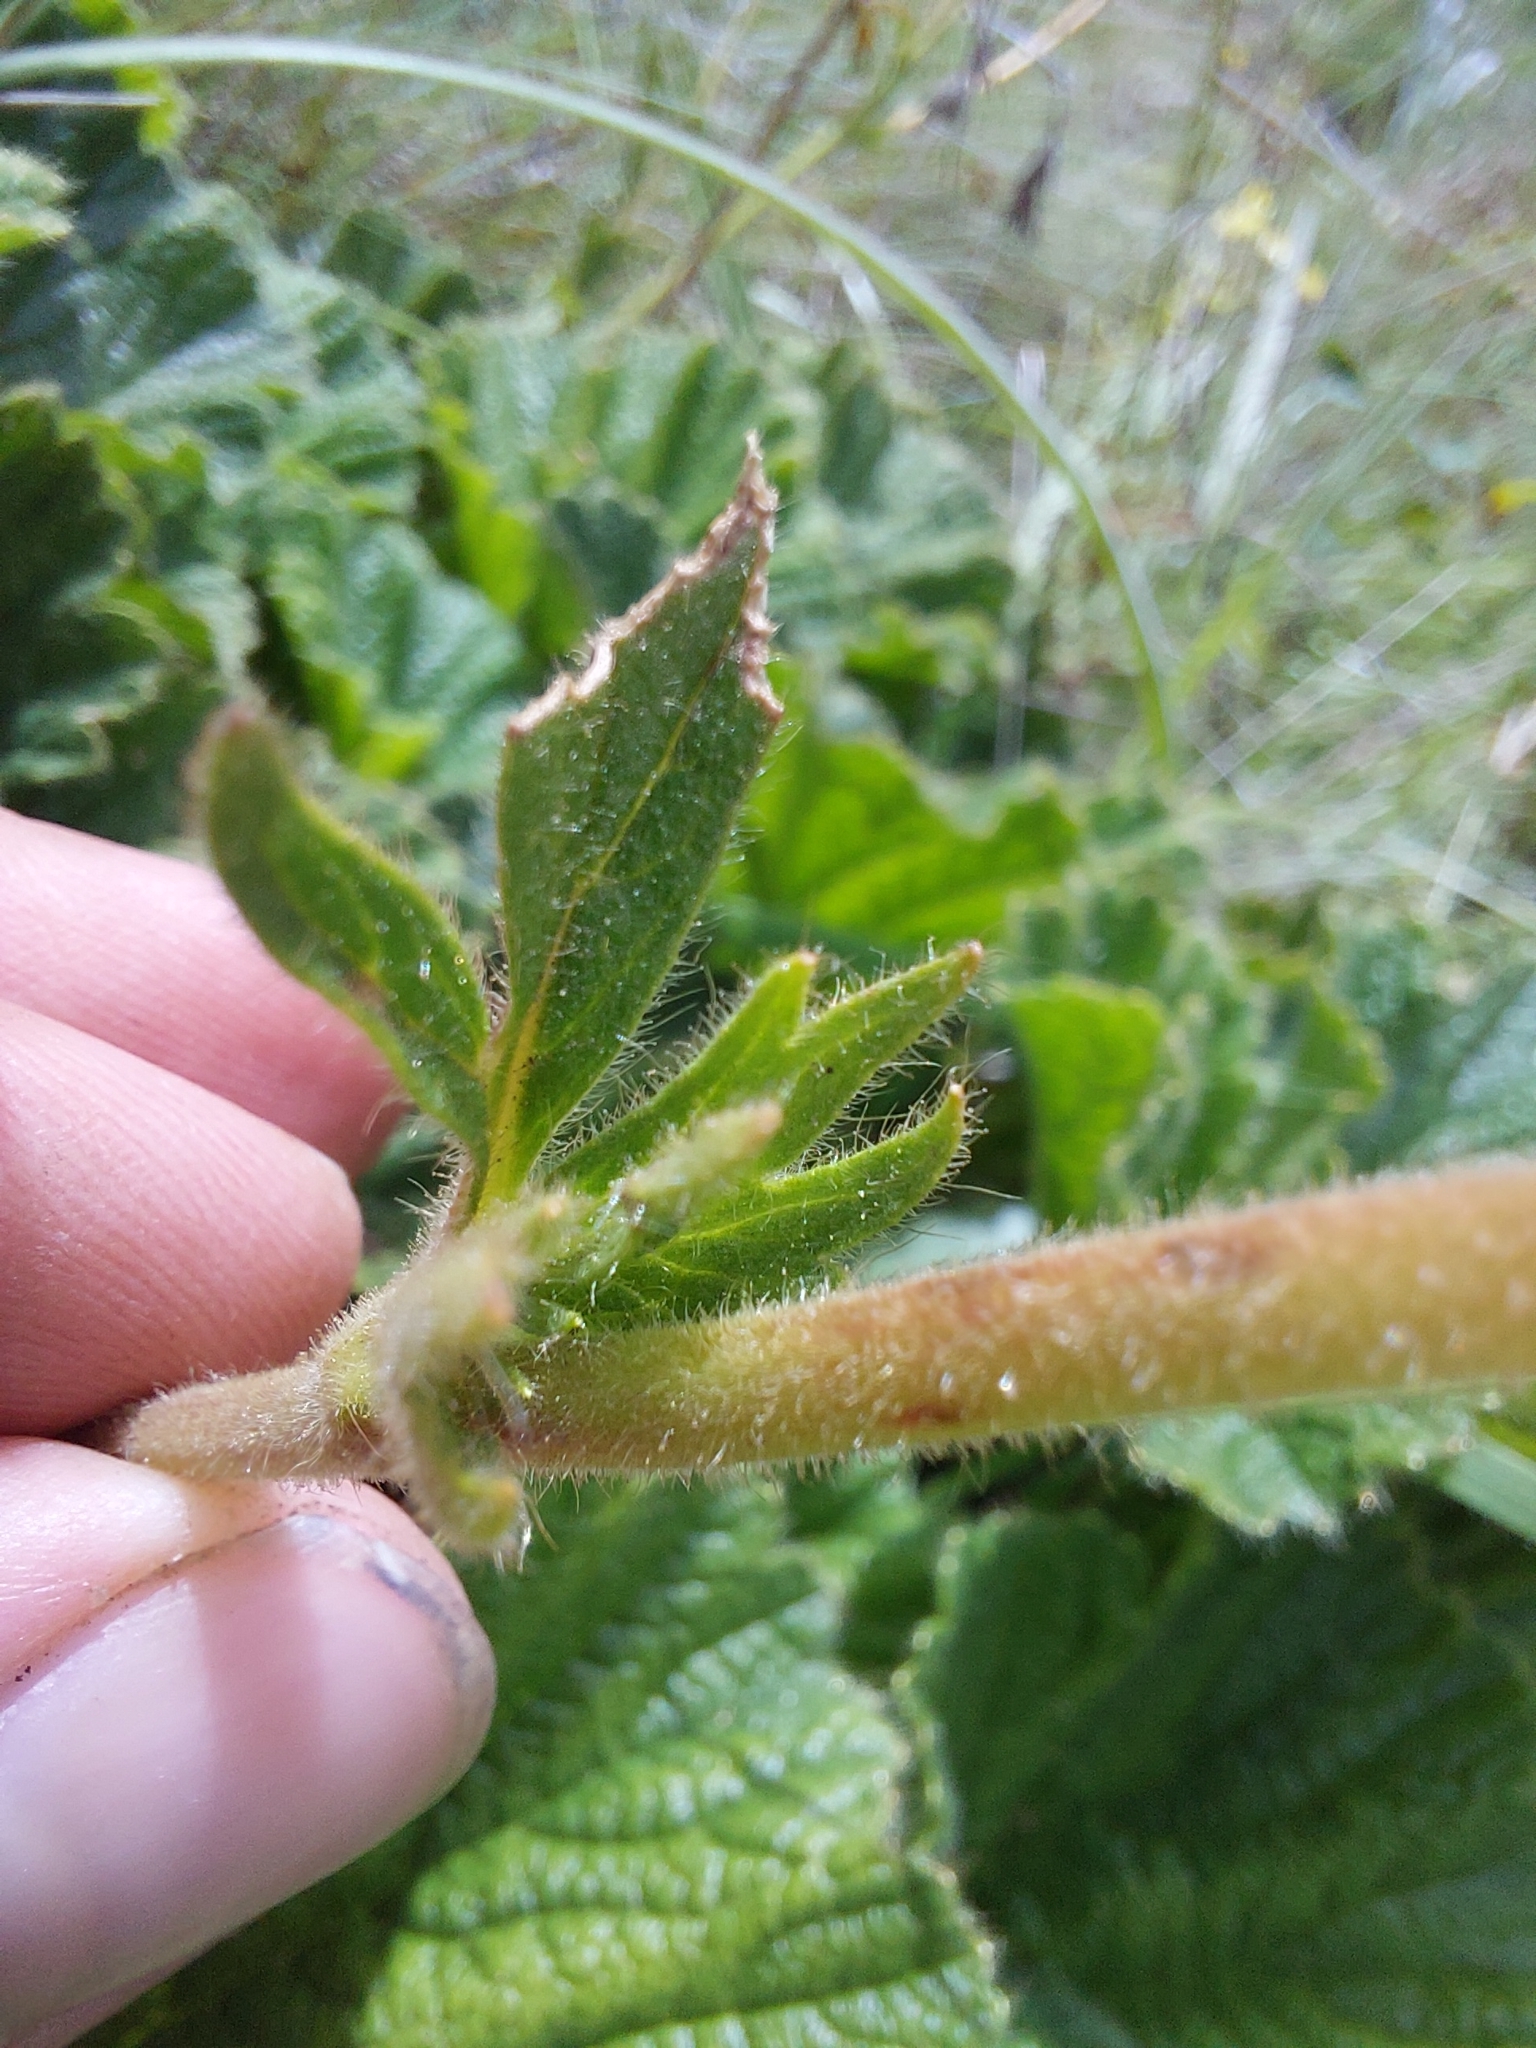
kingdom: Plantae
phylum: Tracheophyta
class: Magnoliopsida
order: Rosales
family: Rosaceae
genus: Geum
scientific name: Geum capense
